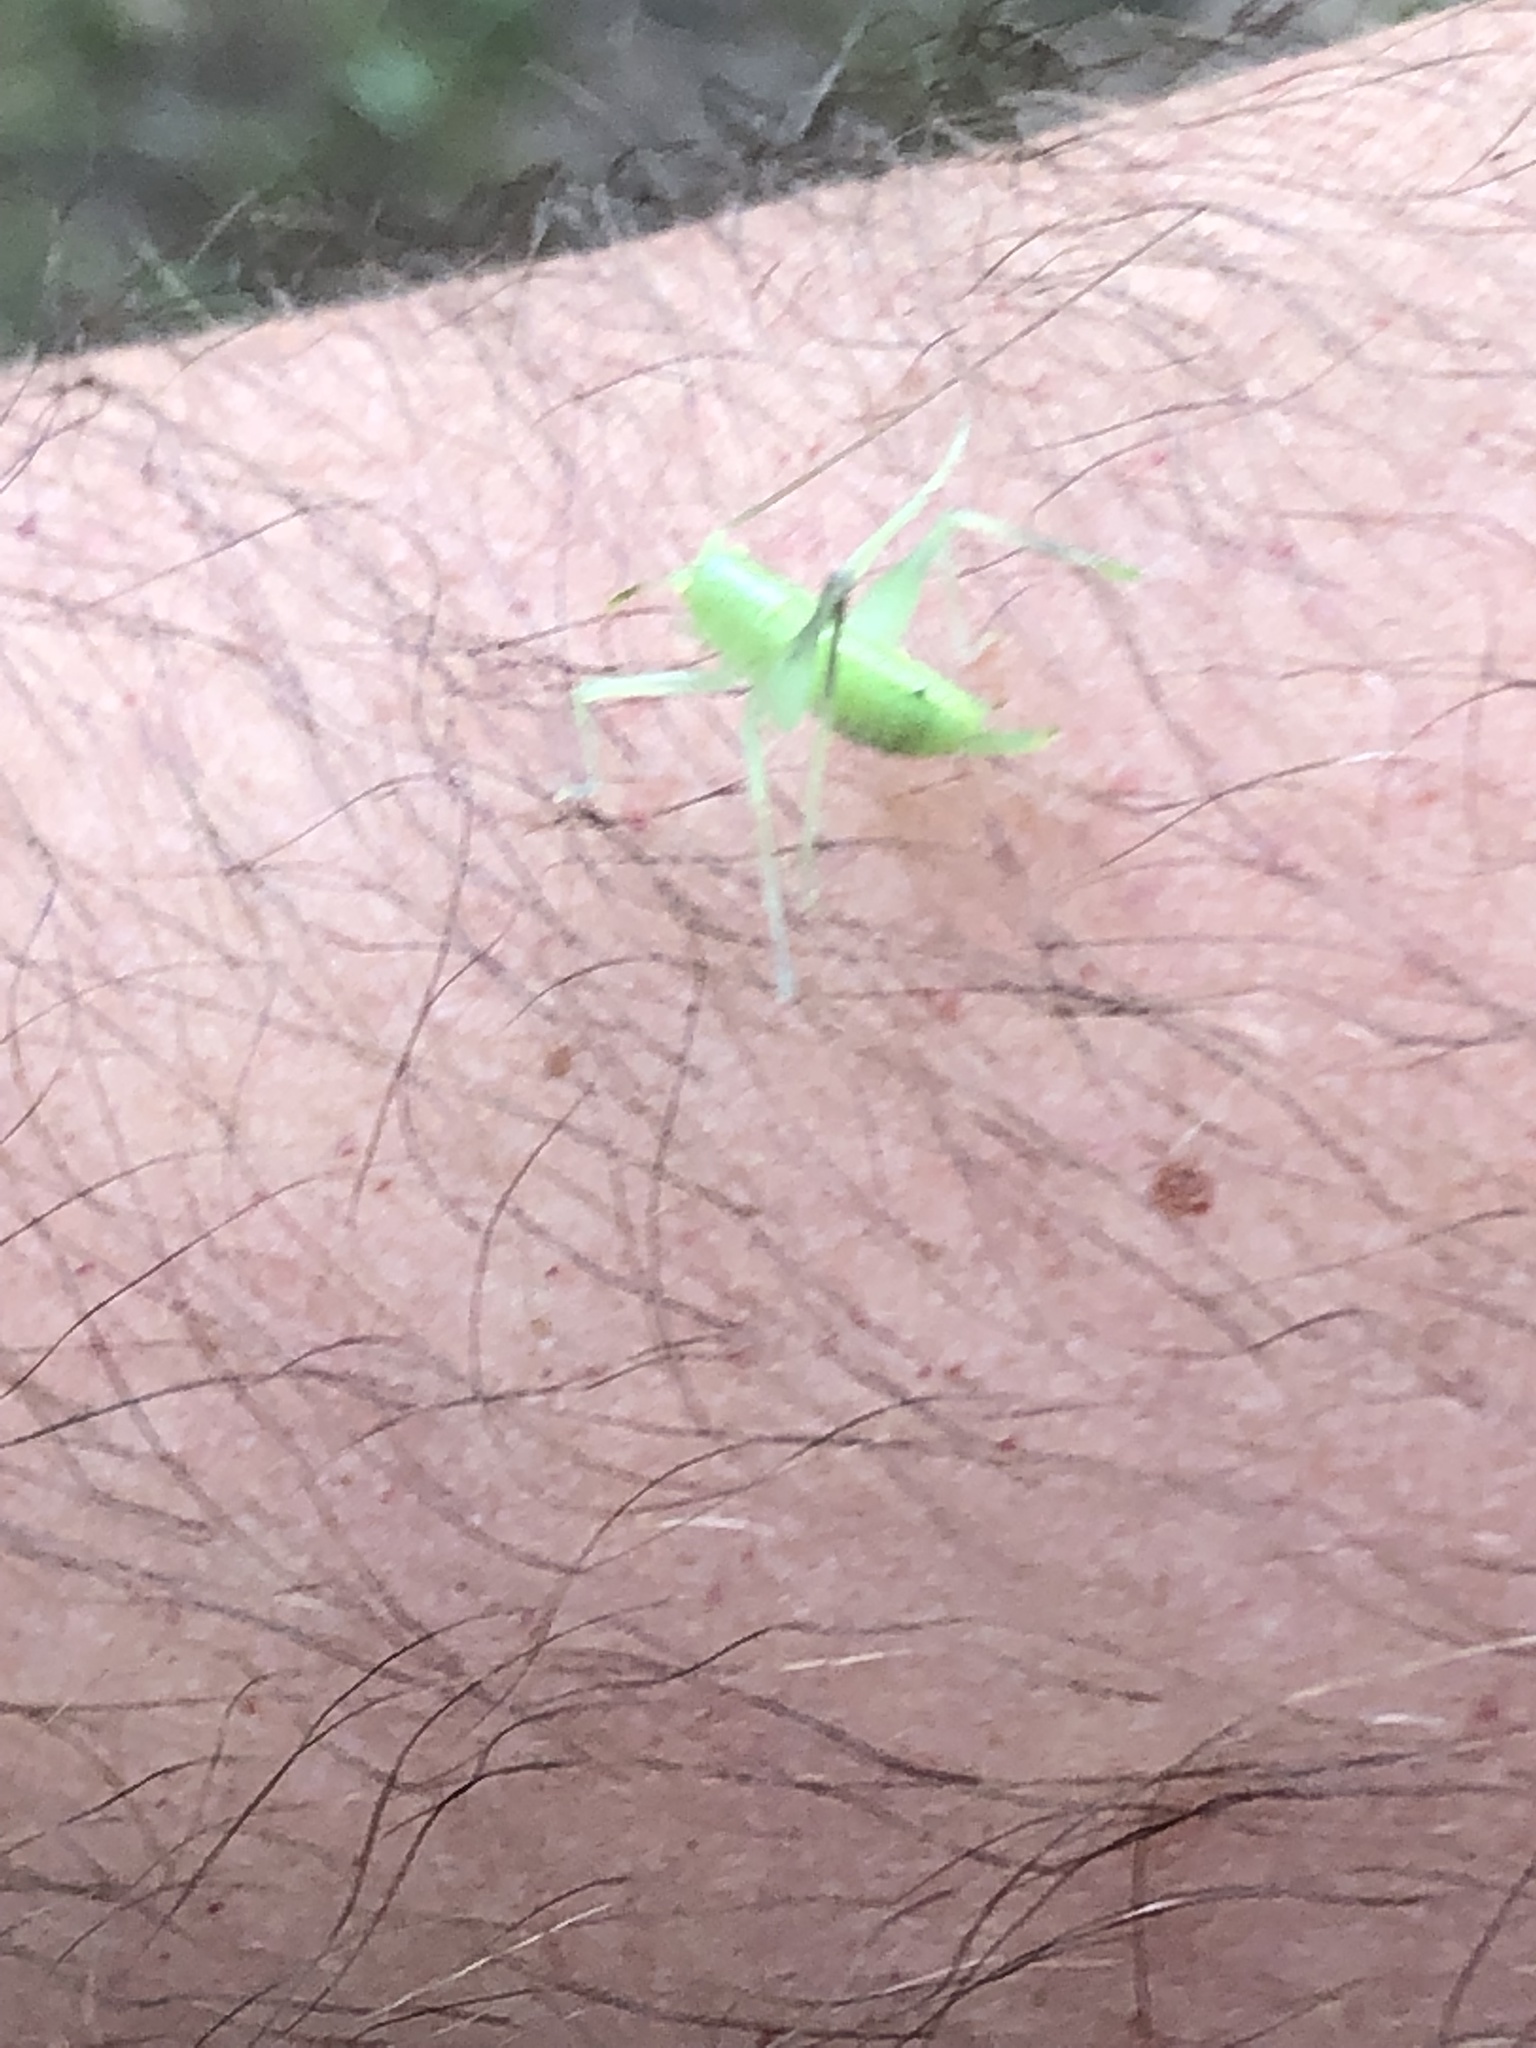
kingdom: Animalia
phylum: Arthropoda
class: Insecta
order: Orthoptera
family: Tettigoniidae
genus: Meconema
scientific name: Meconema thalassinum
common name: Oak bush-cricket
